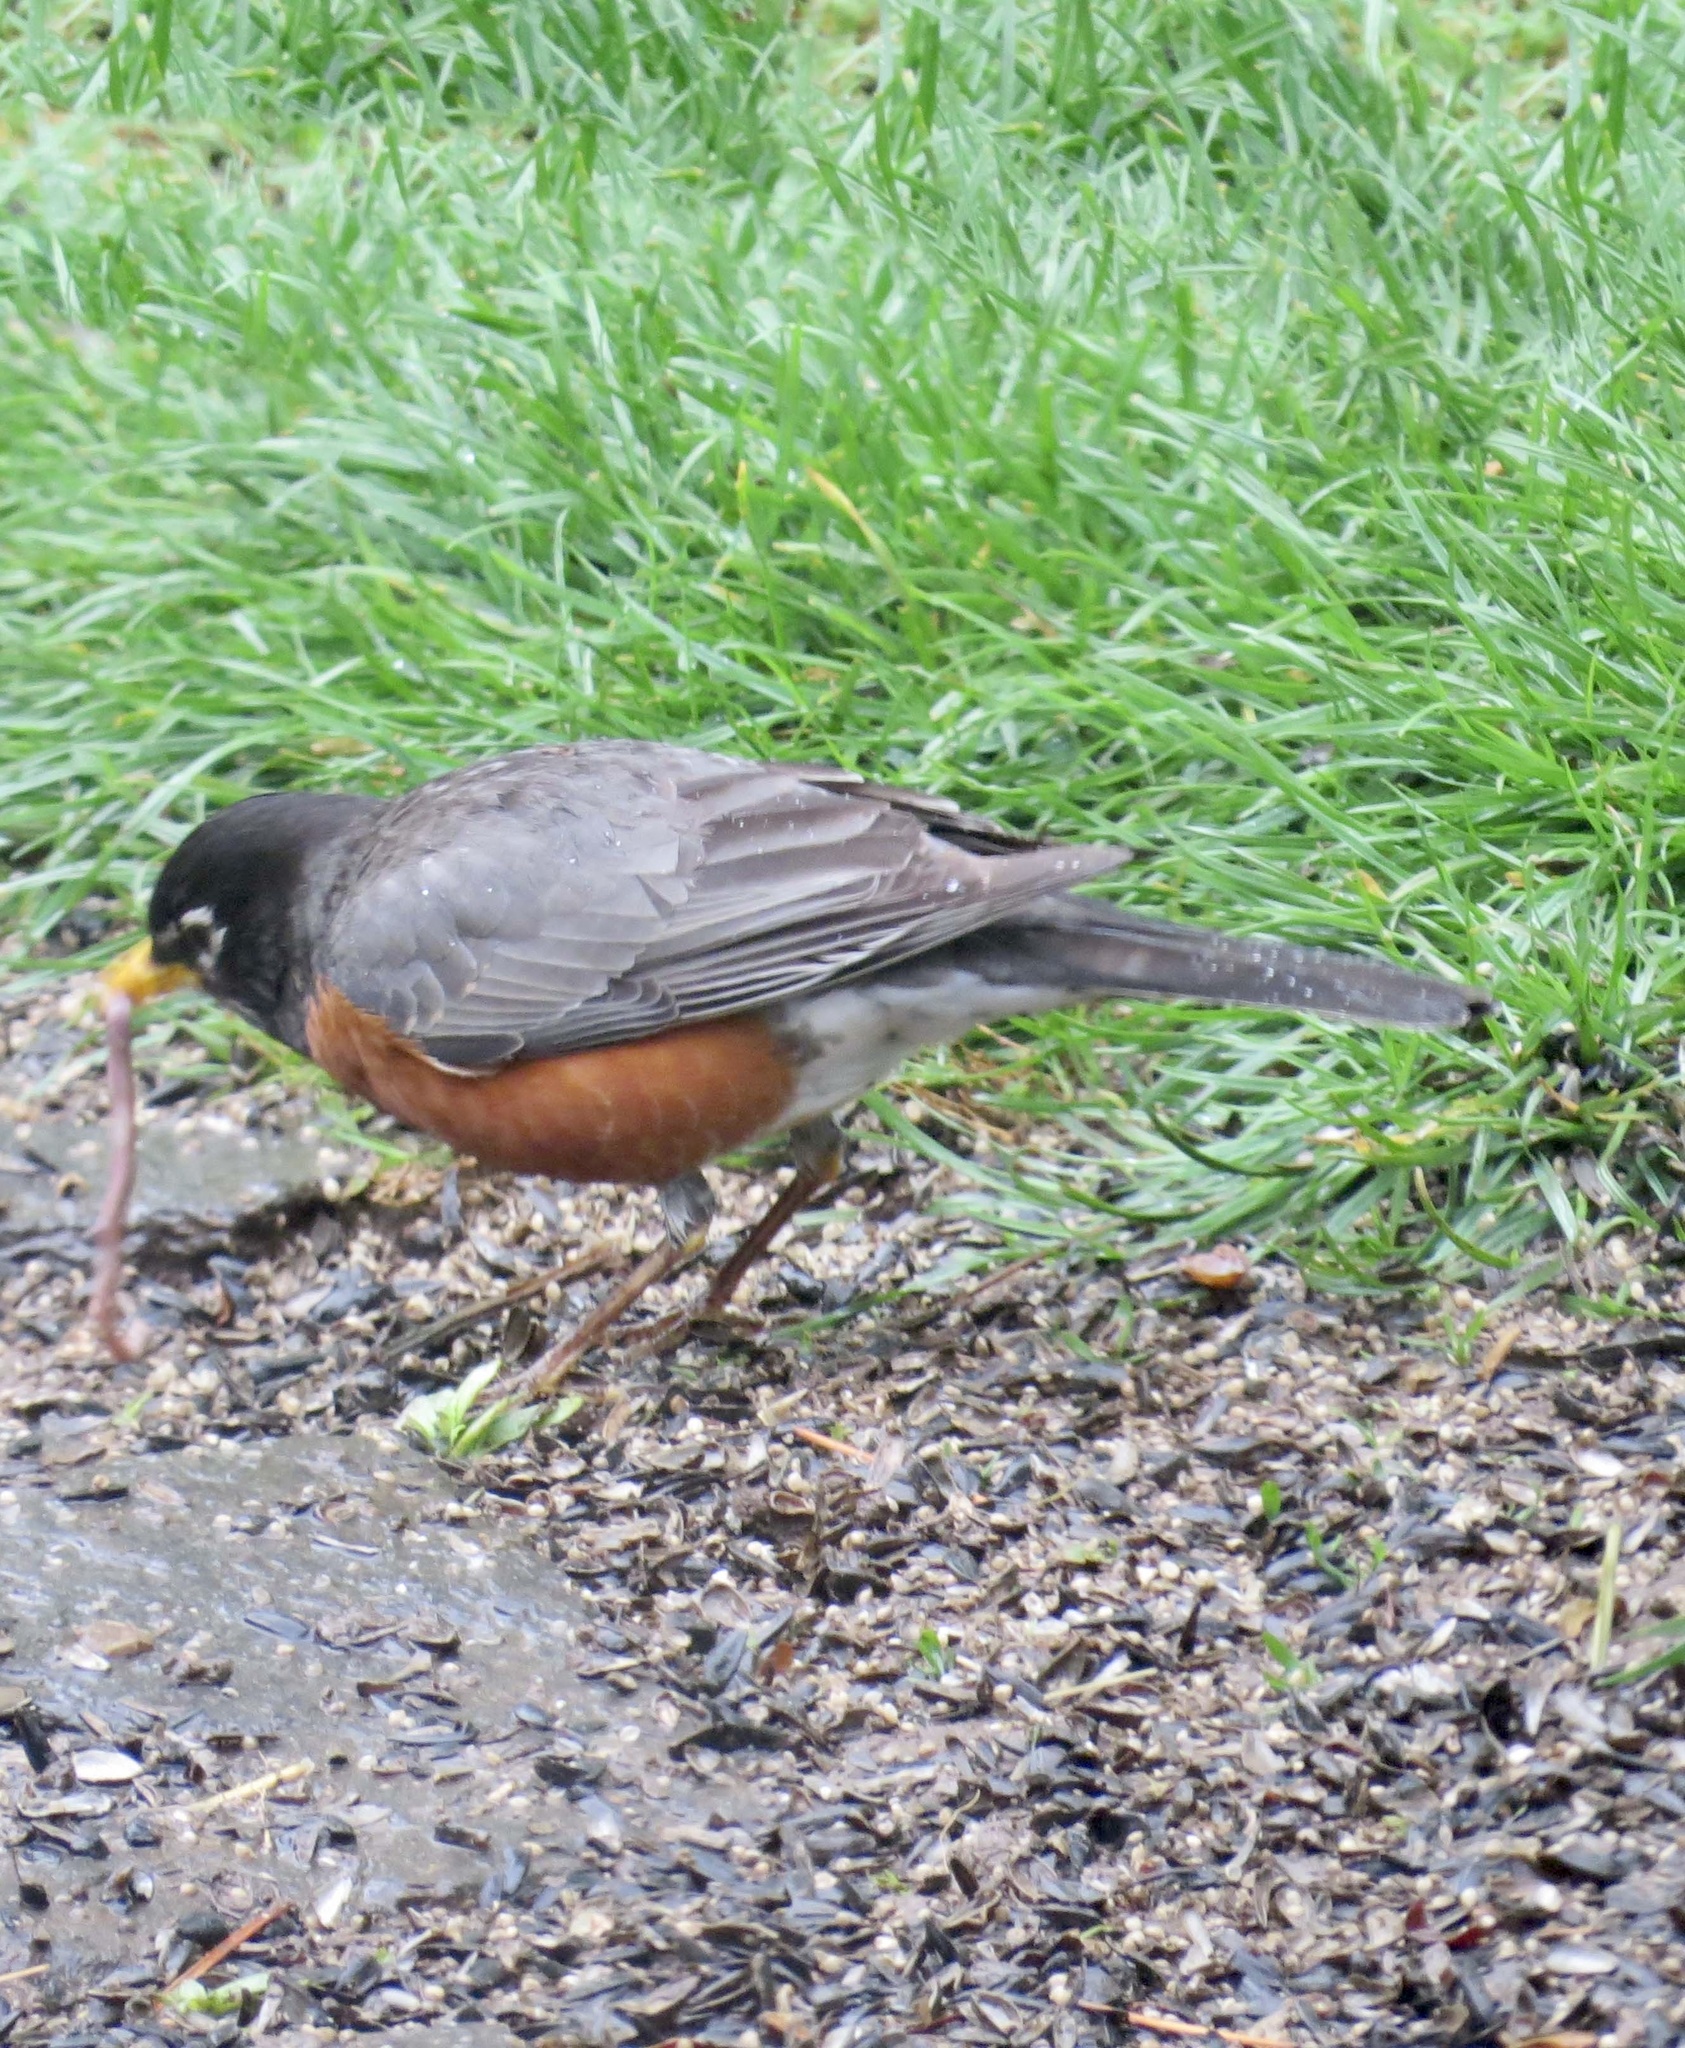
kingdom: Animalia
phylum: Chordata
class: Aves
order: Passeriformes
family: Turdidae
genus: Turdus
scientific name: Turdus migratorius
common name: American robin
